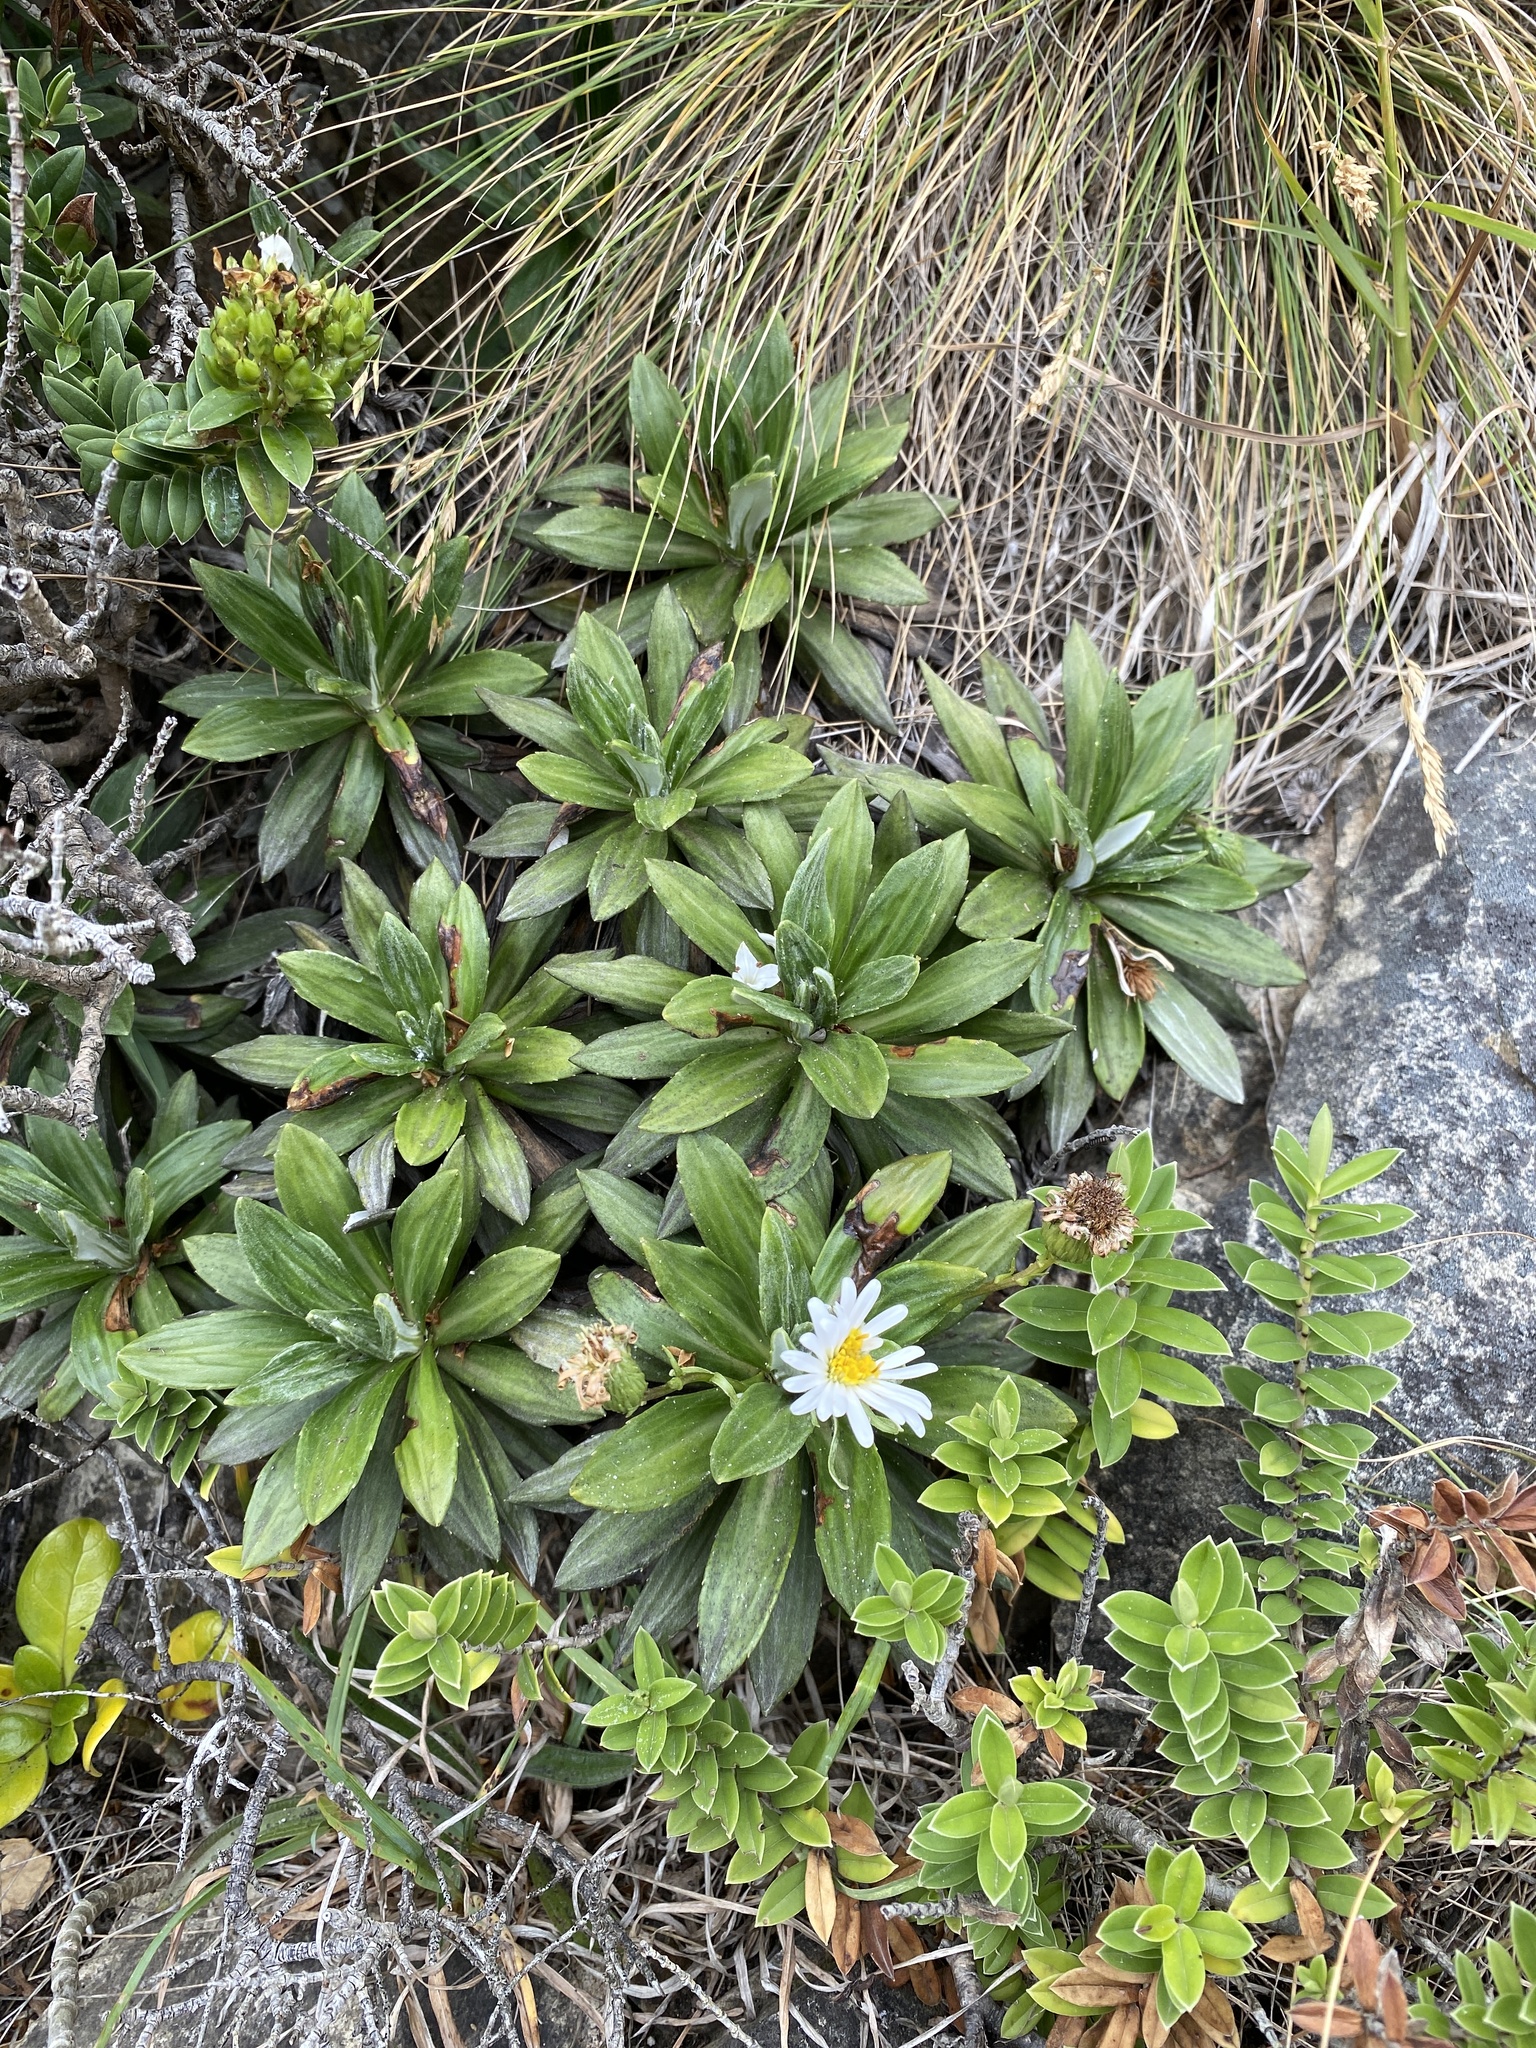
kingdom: Plantae
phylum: Tracheophyta
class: Magnoliopsida
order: Asterales
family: Asteraceae
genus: Celmisia
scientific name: Celmisia lindsayi
